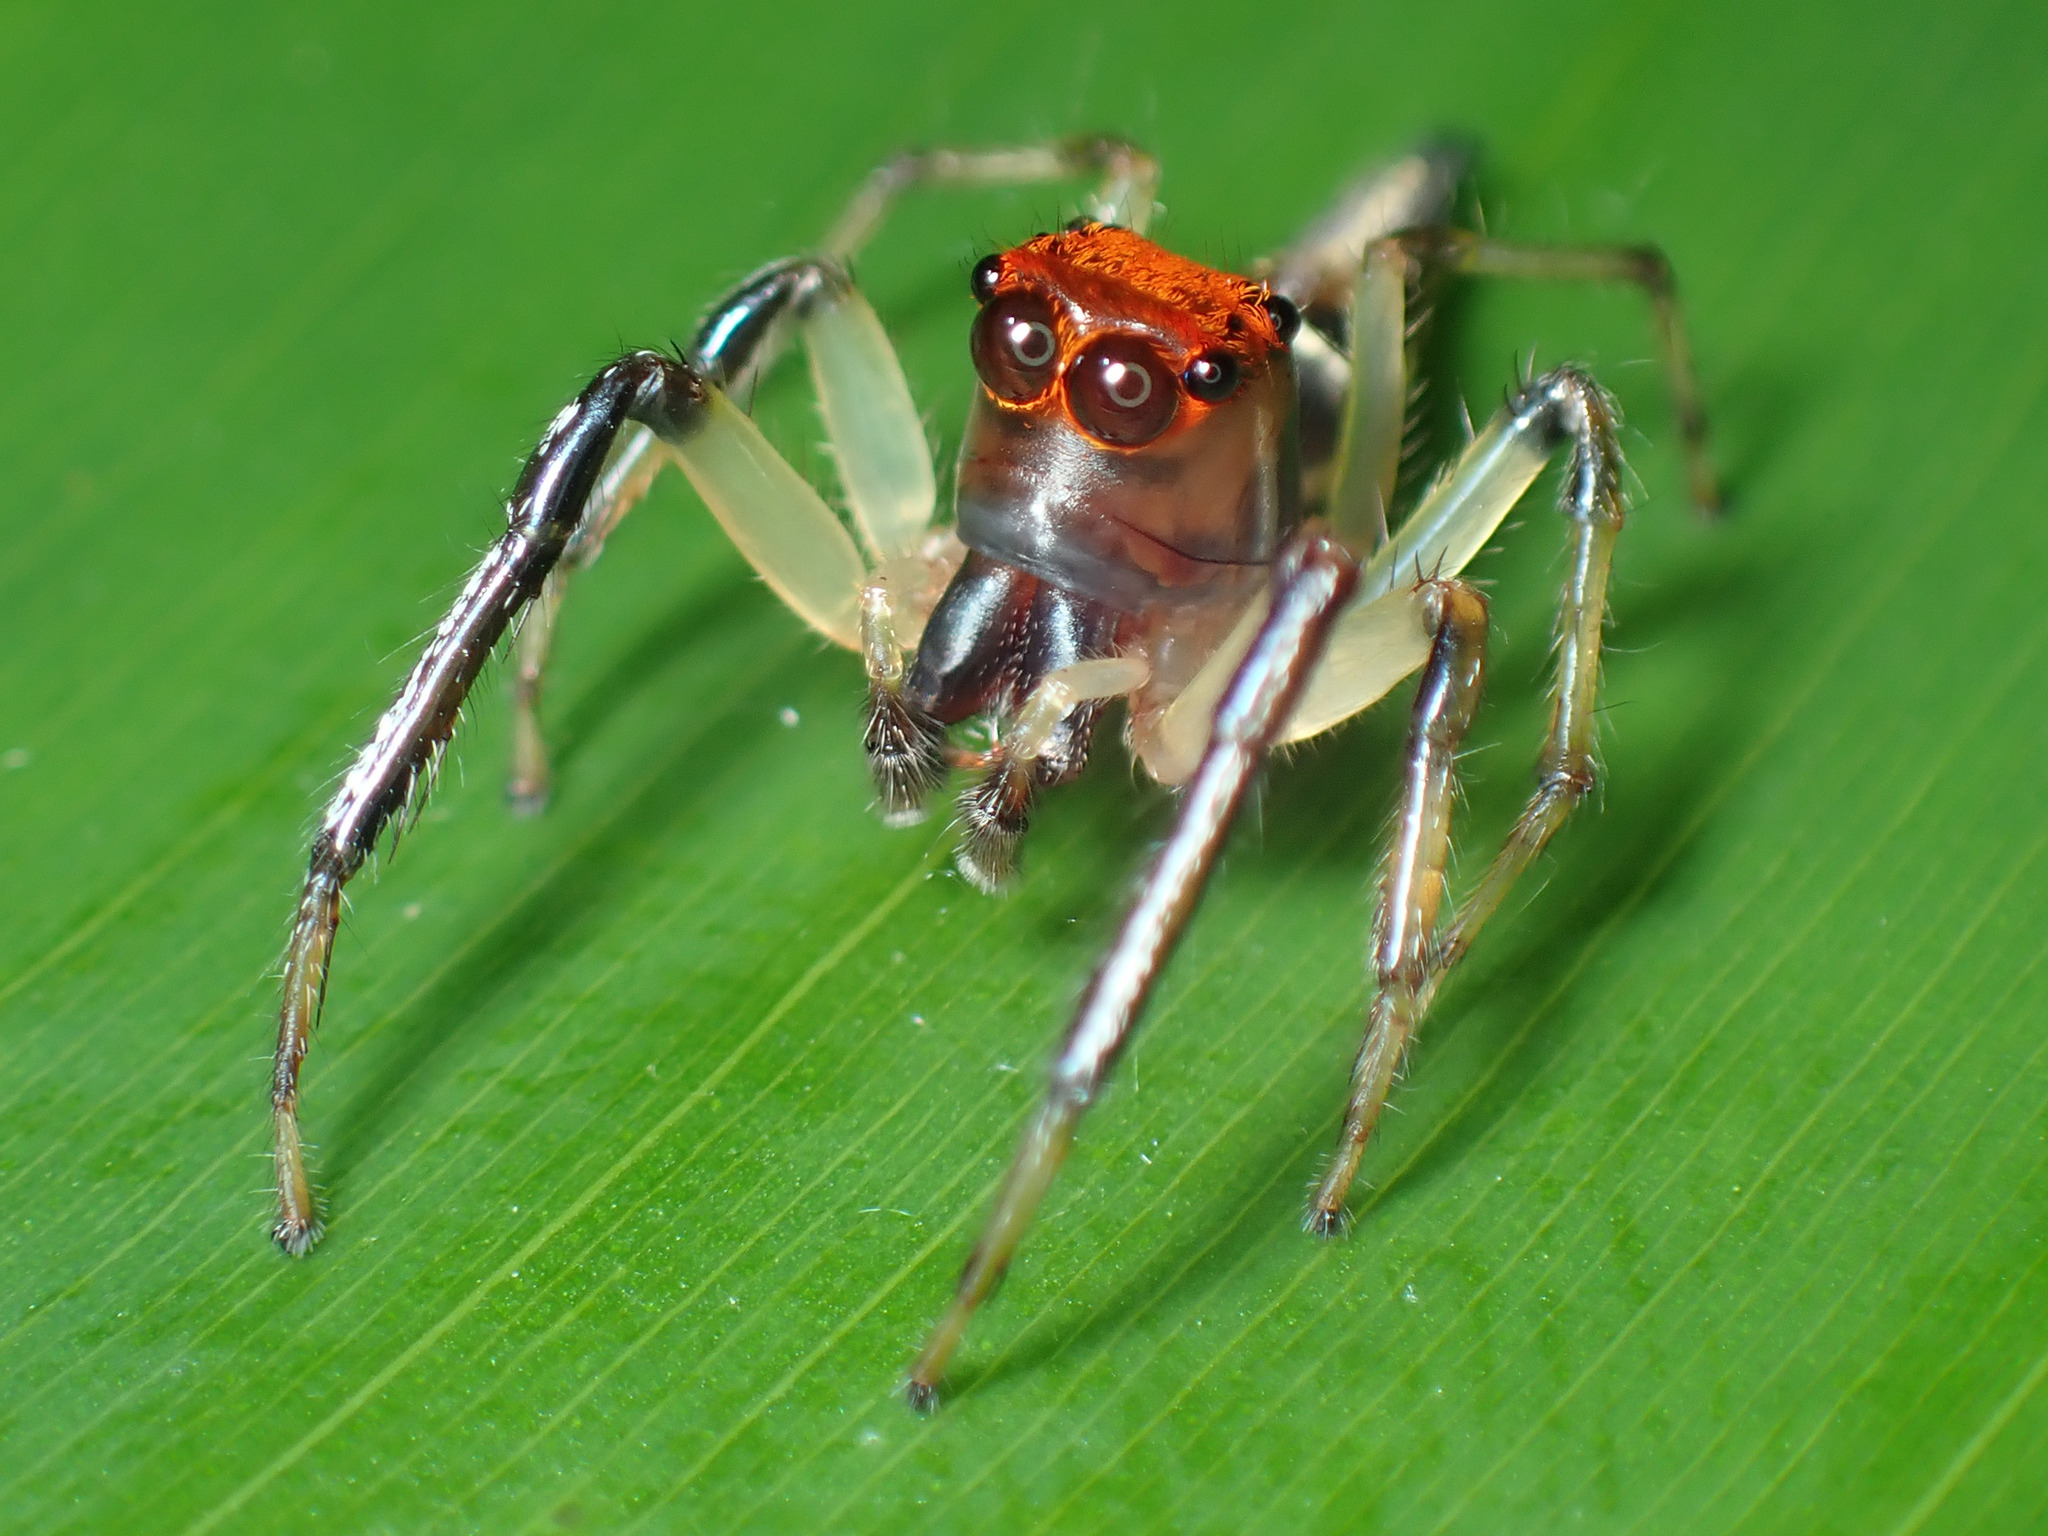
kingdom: Animalia
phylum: Arthropoda
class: Arachnida
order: Araneae
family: Salticidae
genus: Hypaeus
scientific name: Hypaeus benignus
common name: Jumping spiders
